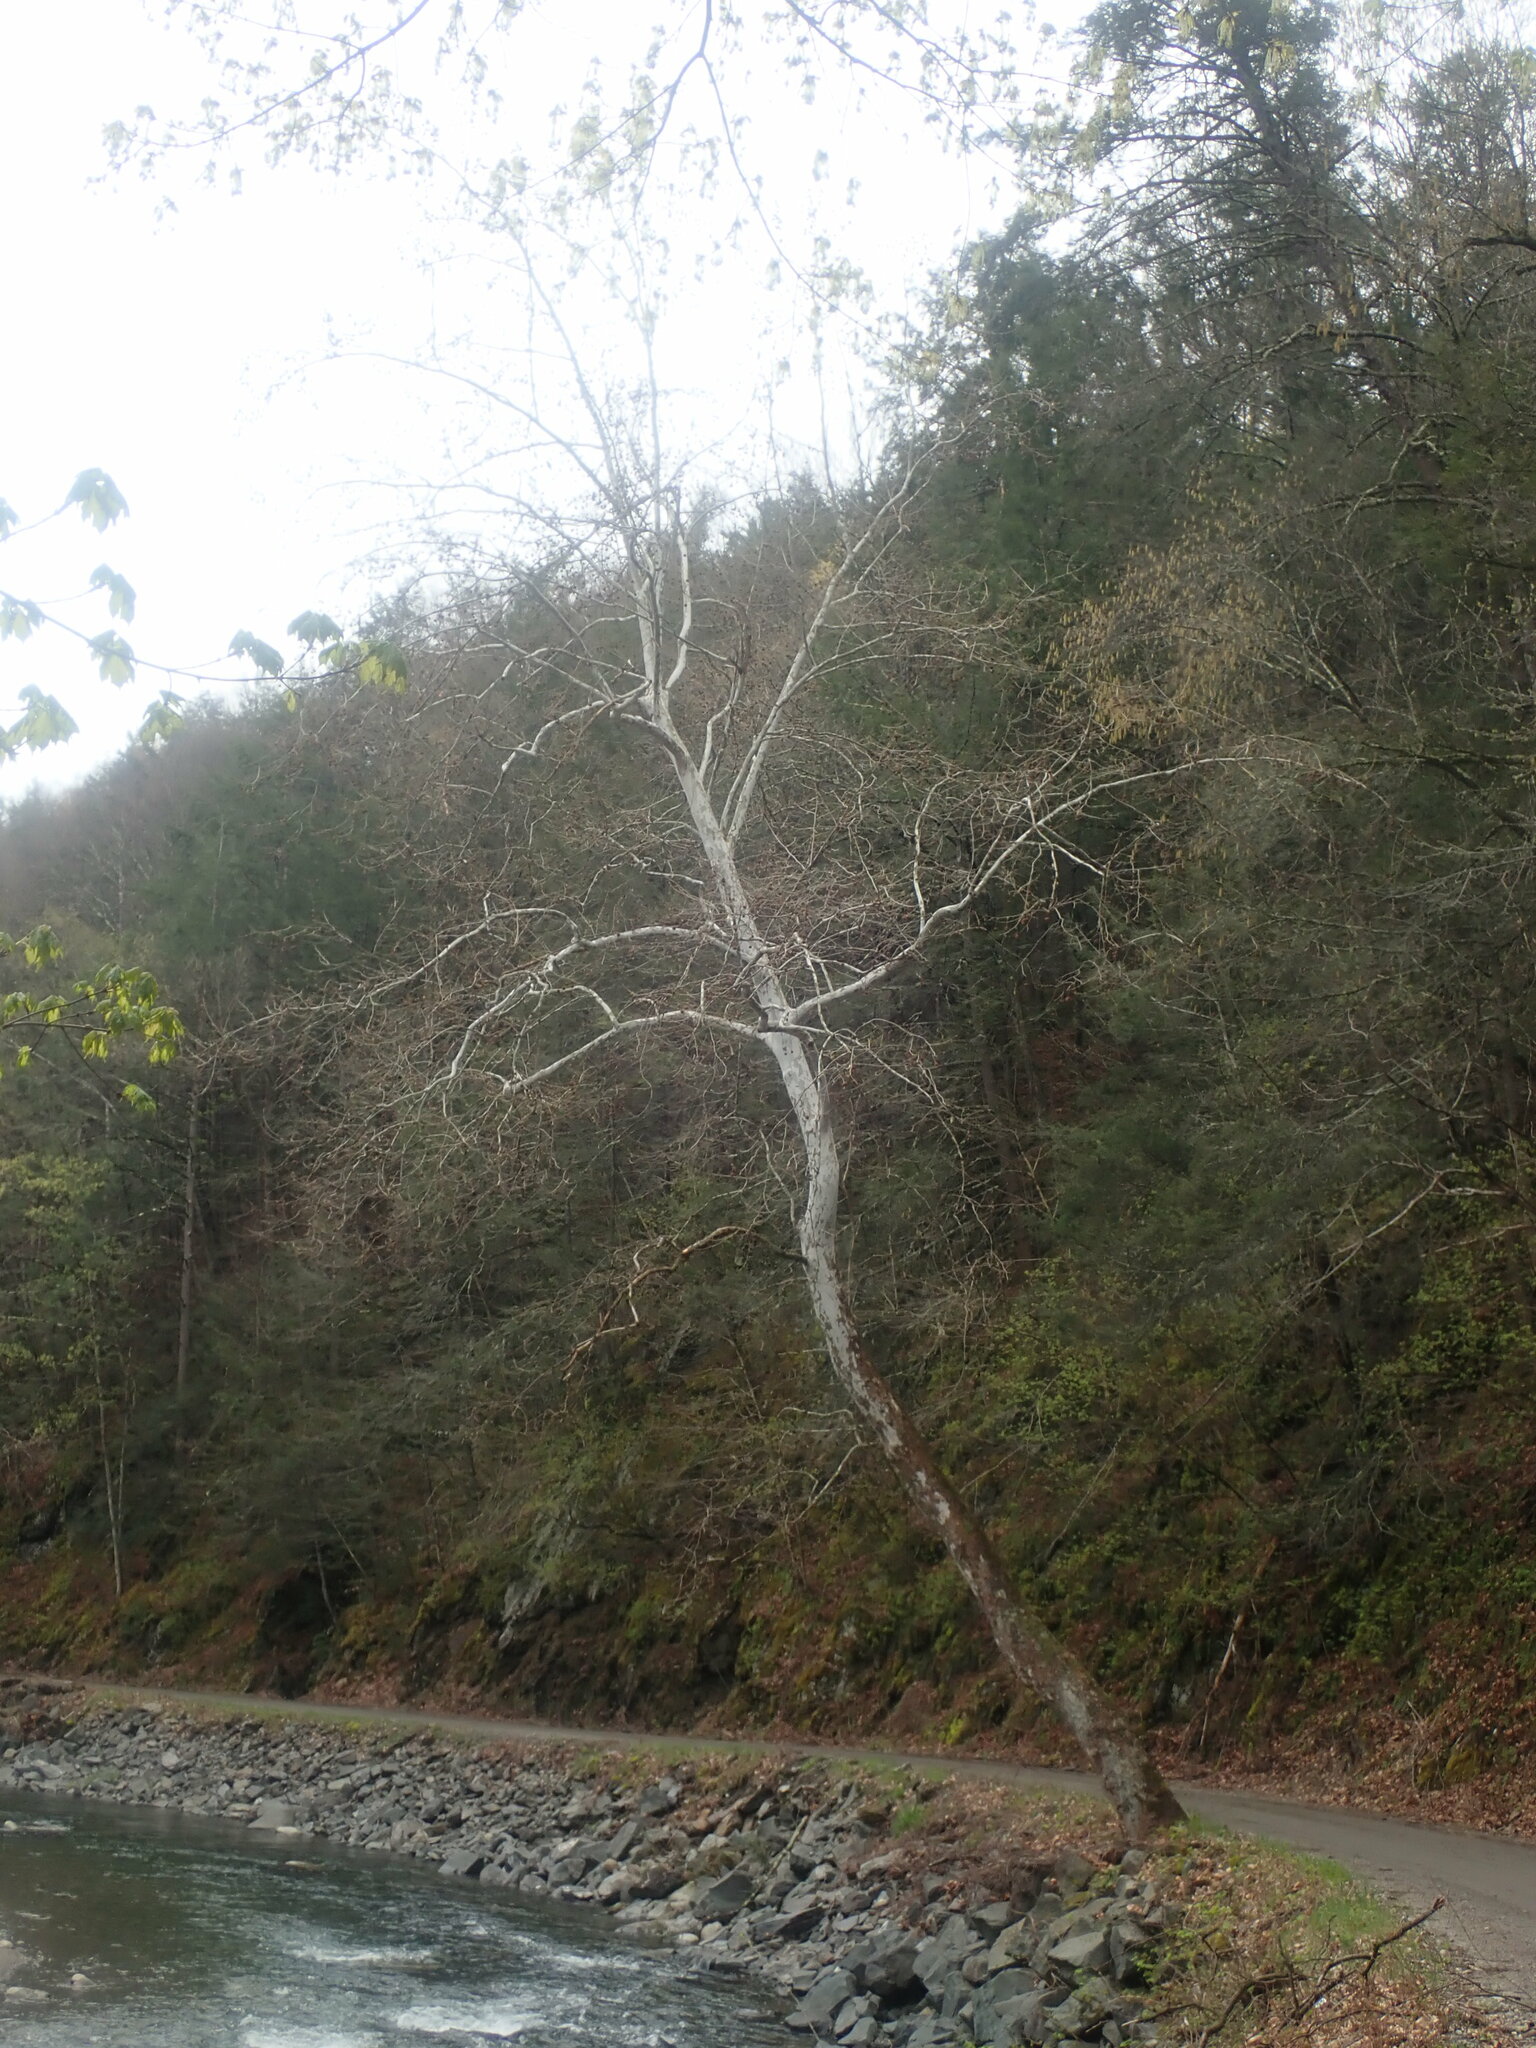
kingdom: Plantae
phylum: Tracheophyta
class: Magnoliopsida
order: Proteales
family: Platanaceae
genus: Platanus
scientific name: Platanus occidentalis
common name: American sycamore
